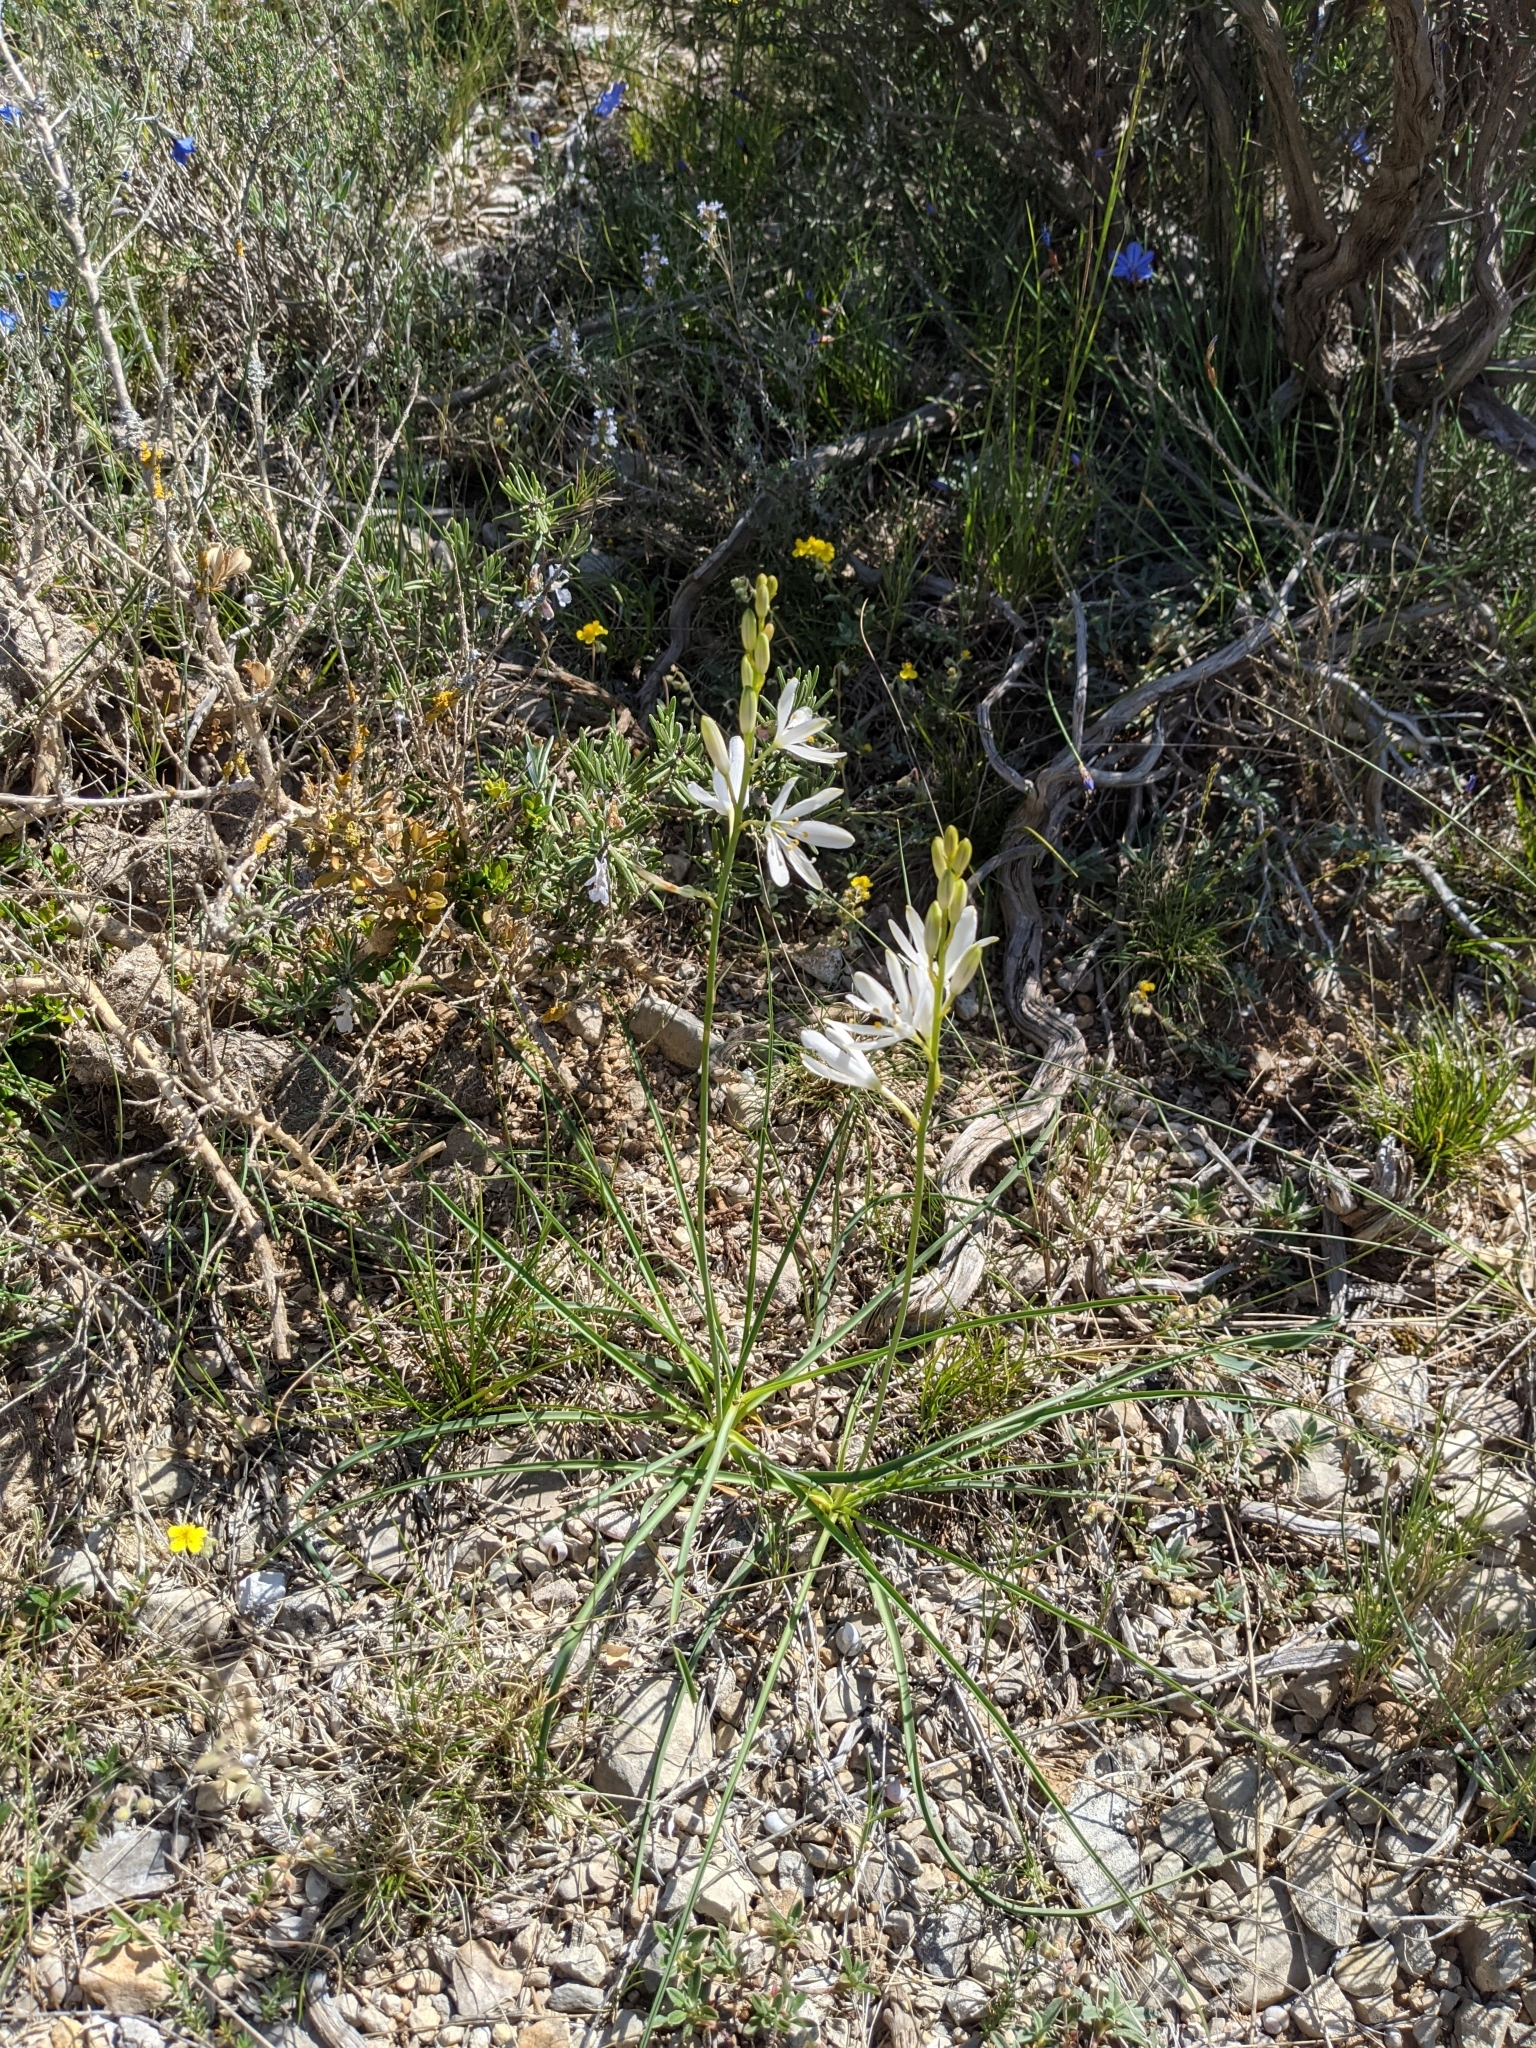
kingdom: Plantae
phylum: Tracheophyta
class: Liliopsida
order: Asparagales
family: Asparagaceae
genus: Anthericum
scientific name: Anthericum liliago
